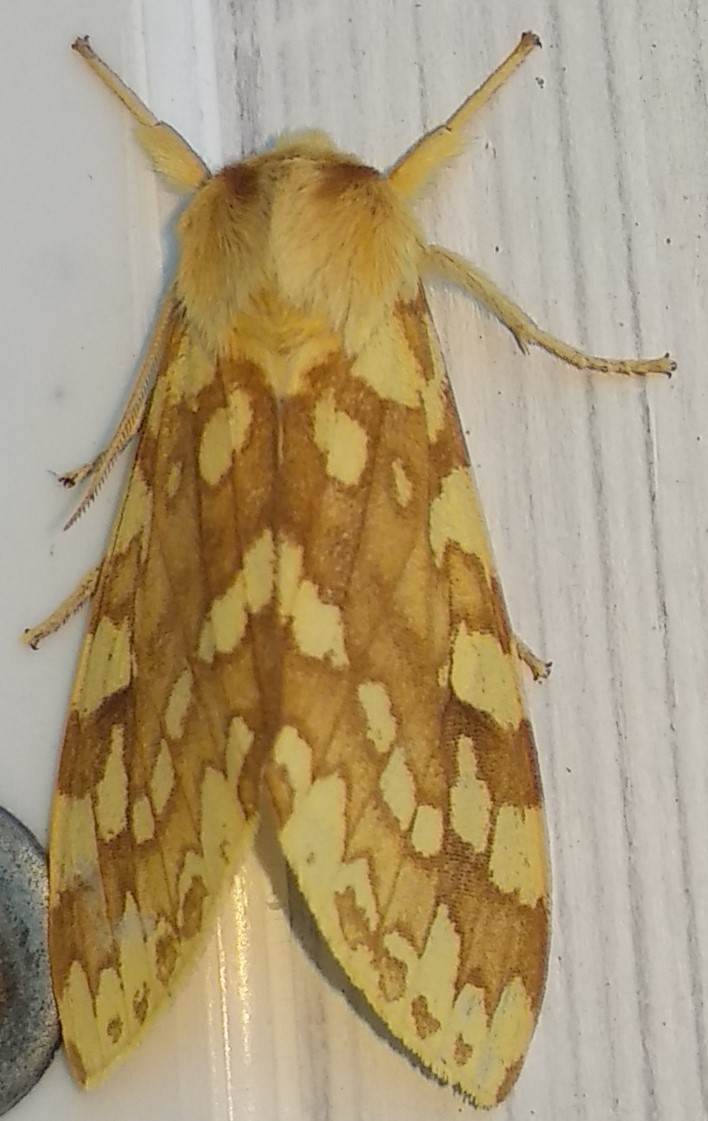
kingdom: Animalia
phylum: Arthropoda
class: Insecta
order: Lepidoptera
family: Erebidae
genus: Lophocampa
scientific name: Lophocampa maculata
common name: Spotted tussock moth
